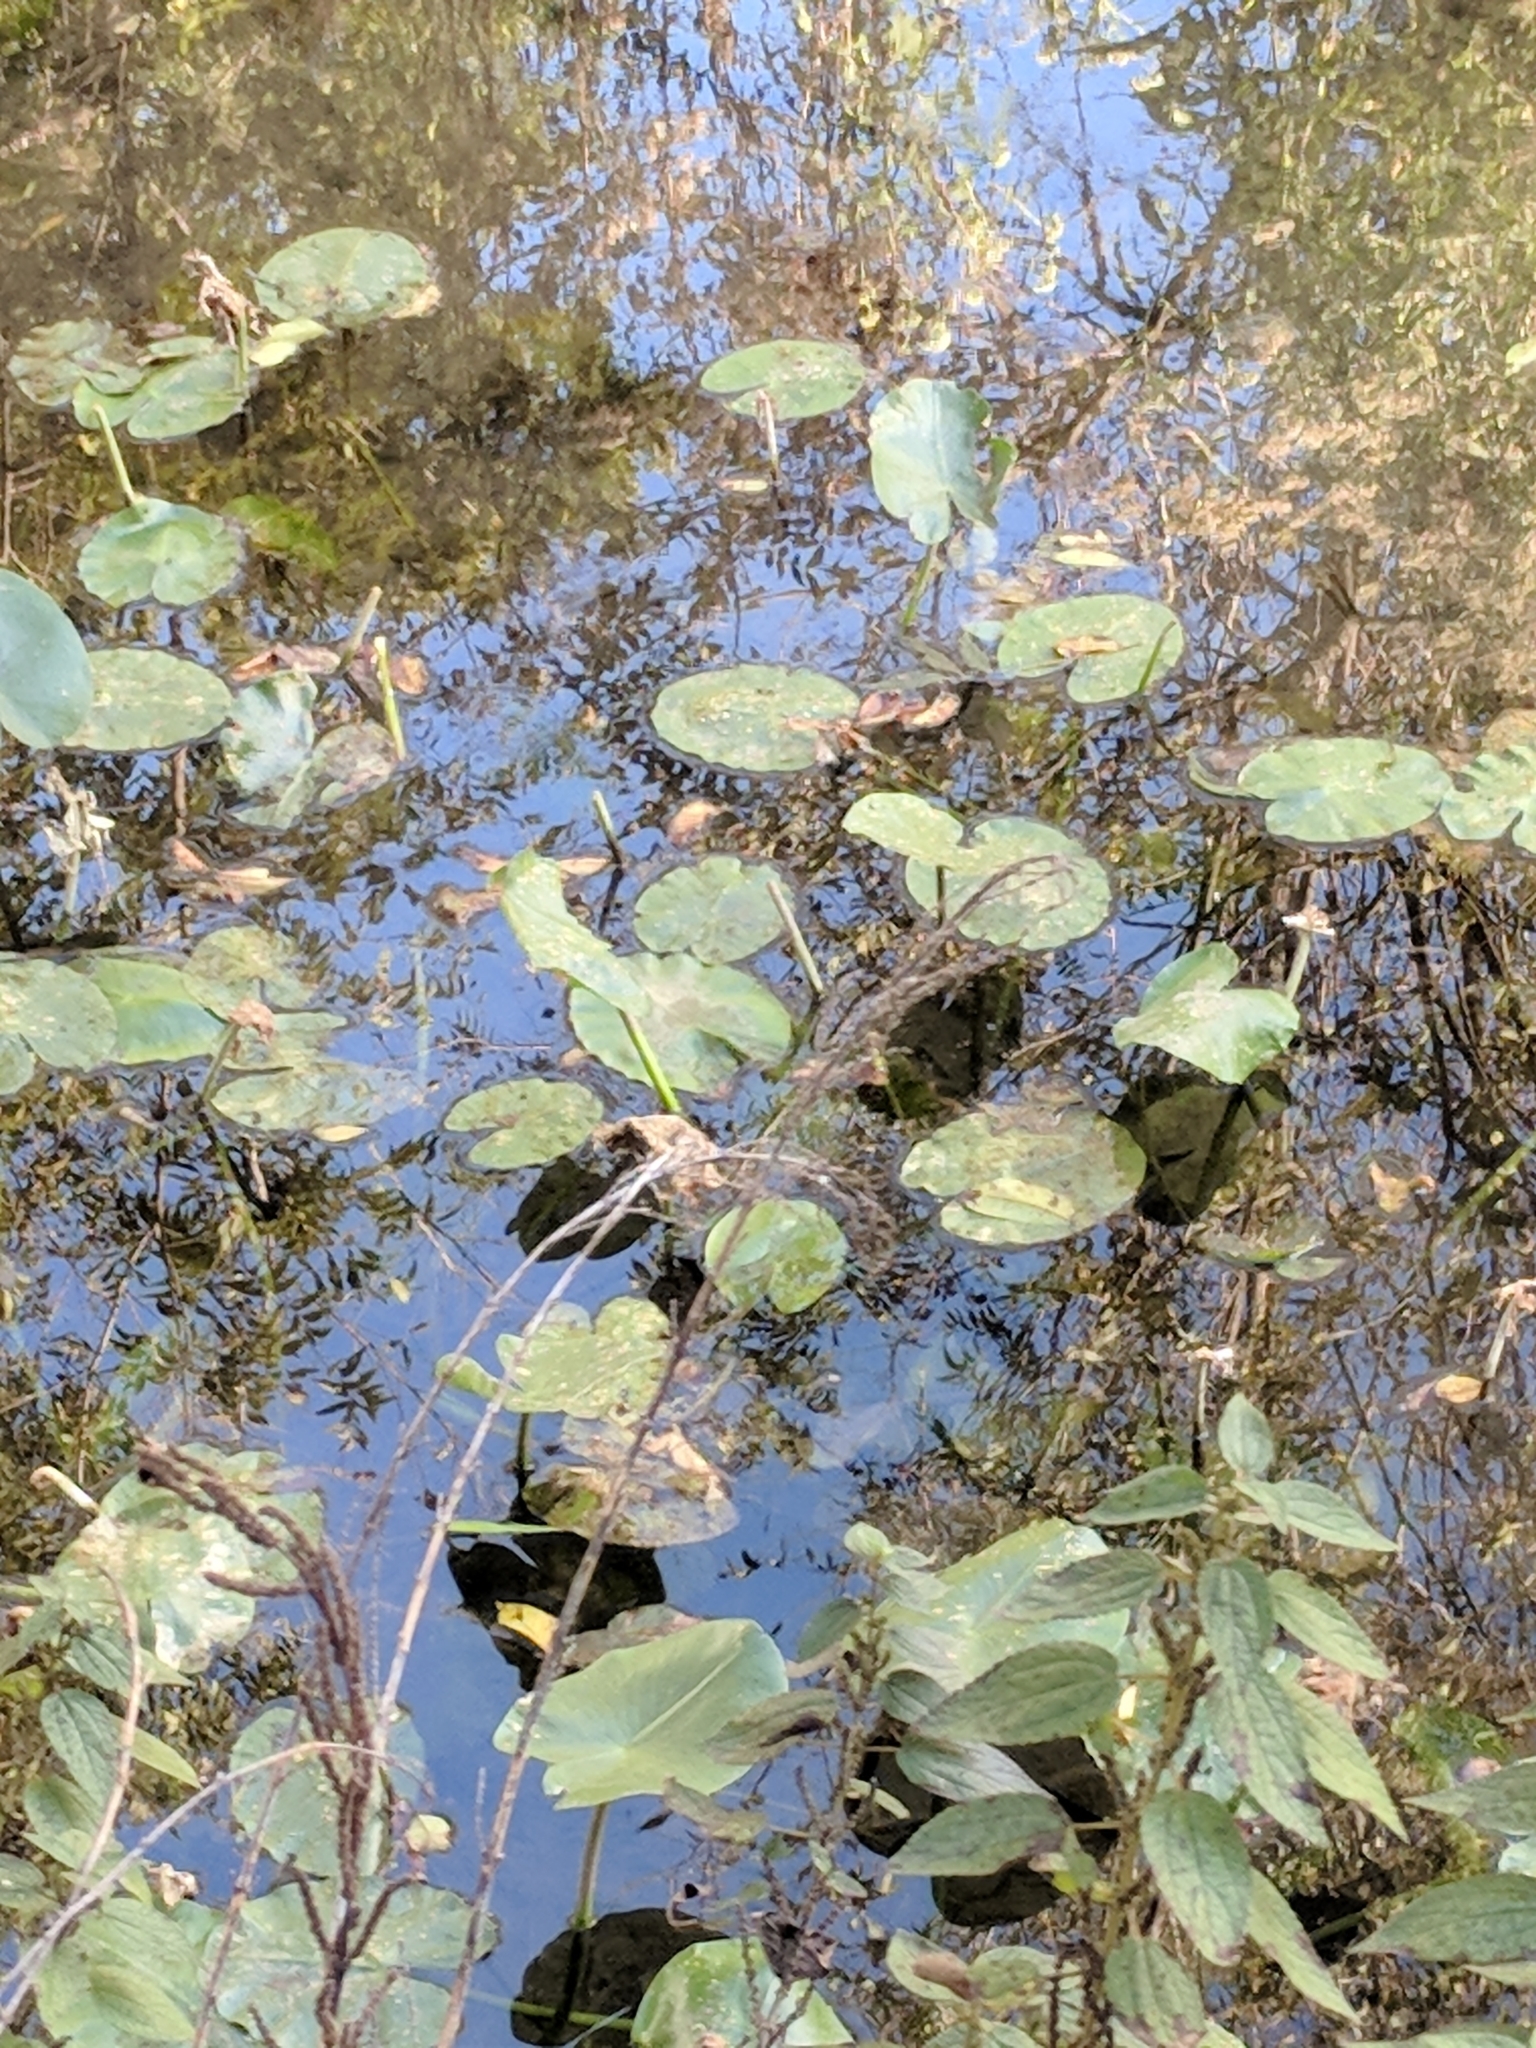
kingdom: Plantae
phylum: Tracheophyta
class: Magnoliopsida
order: Nymphaeales
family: Nymphaeaceae
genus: Nuphar
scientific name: Nuphar advena
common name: Spatter-dock
